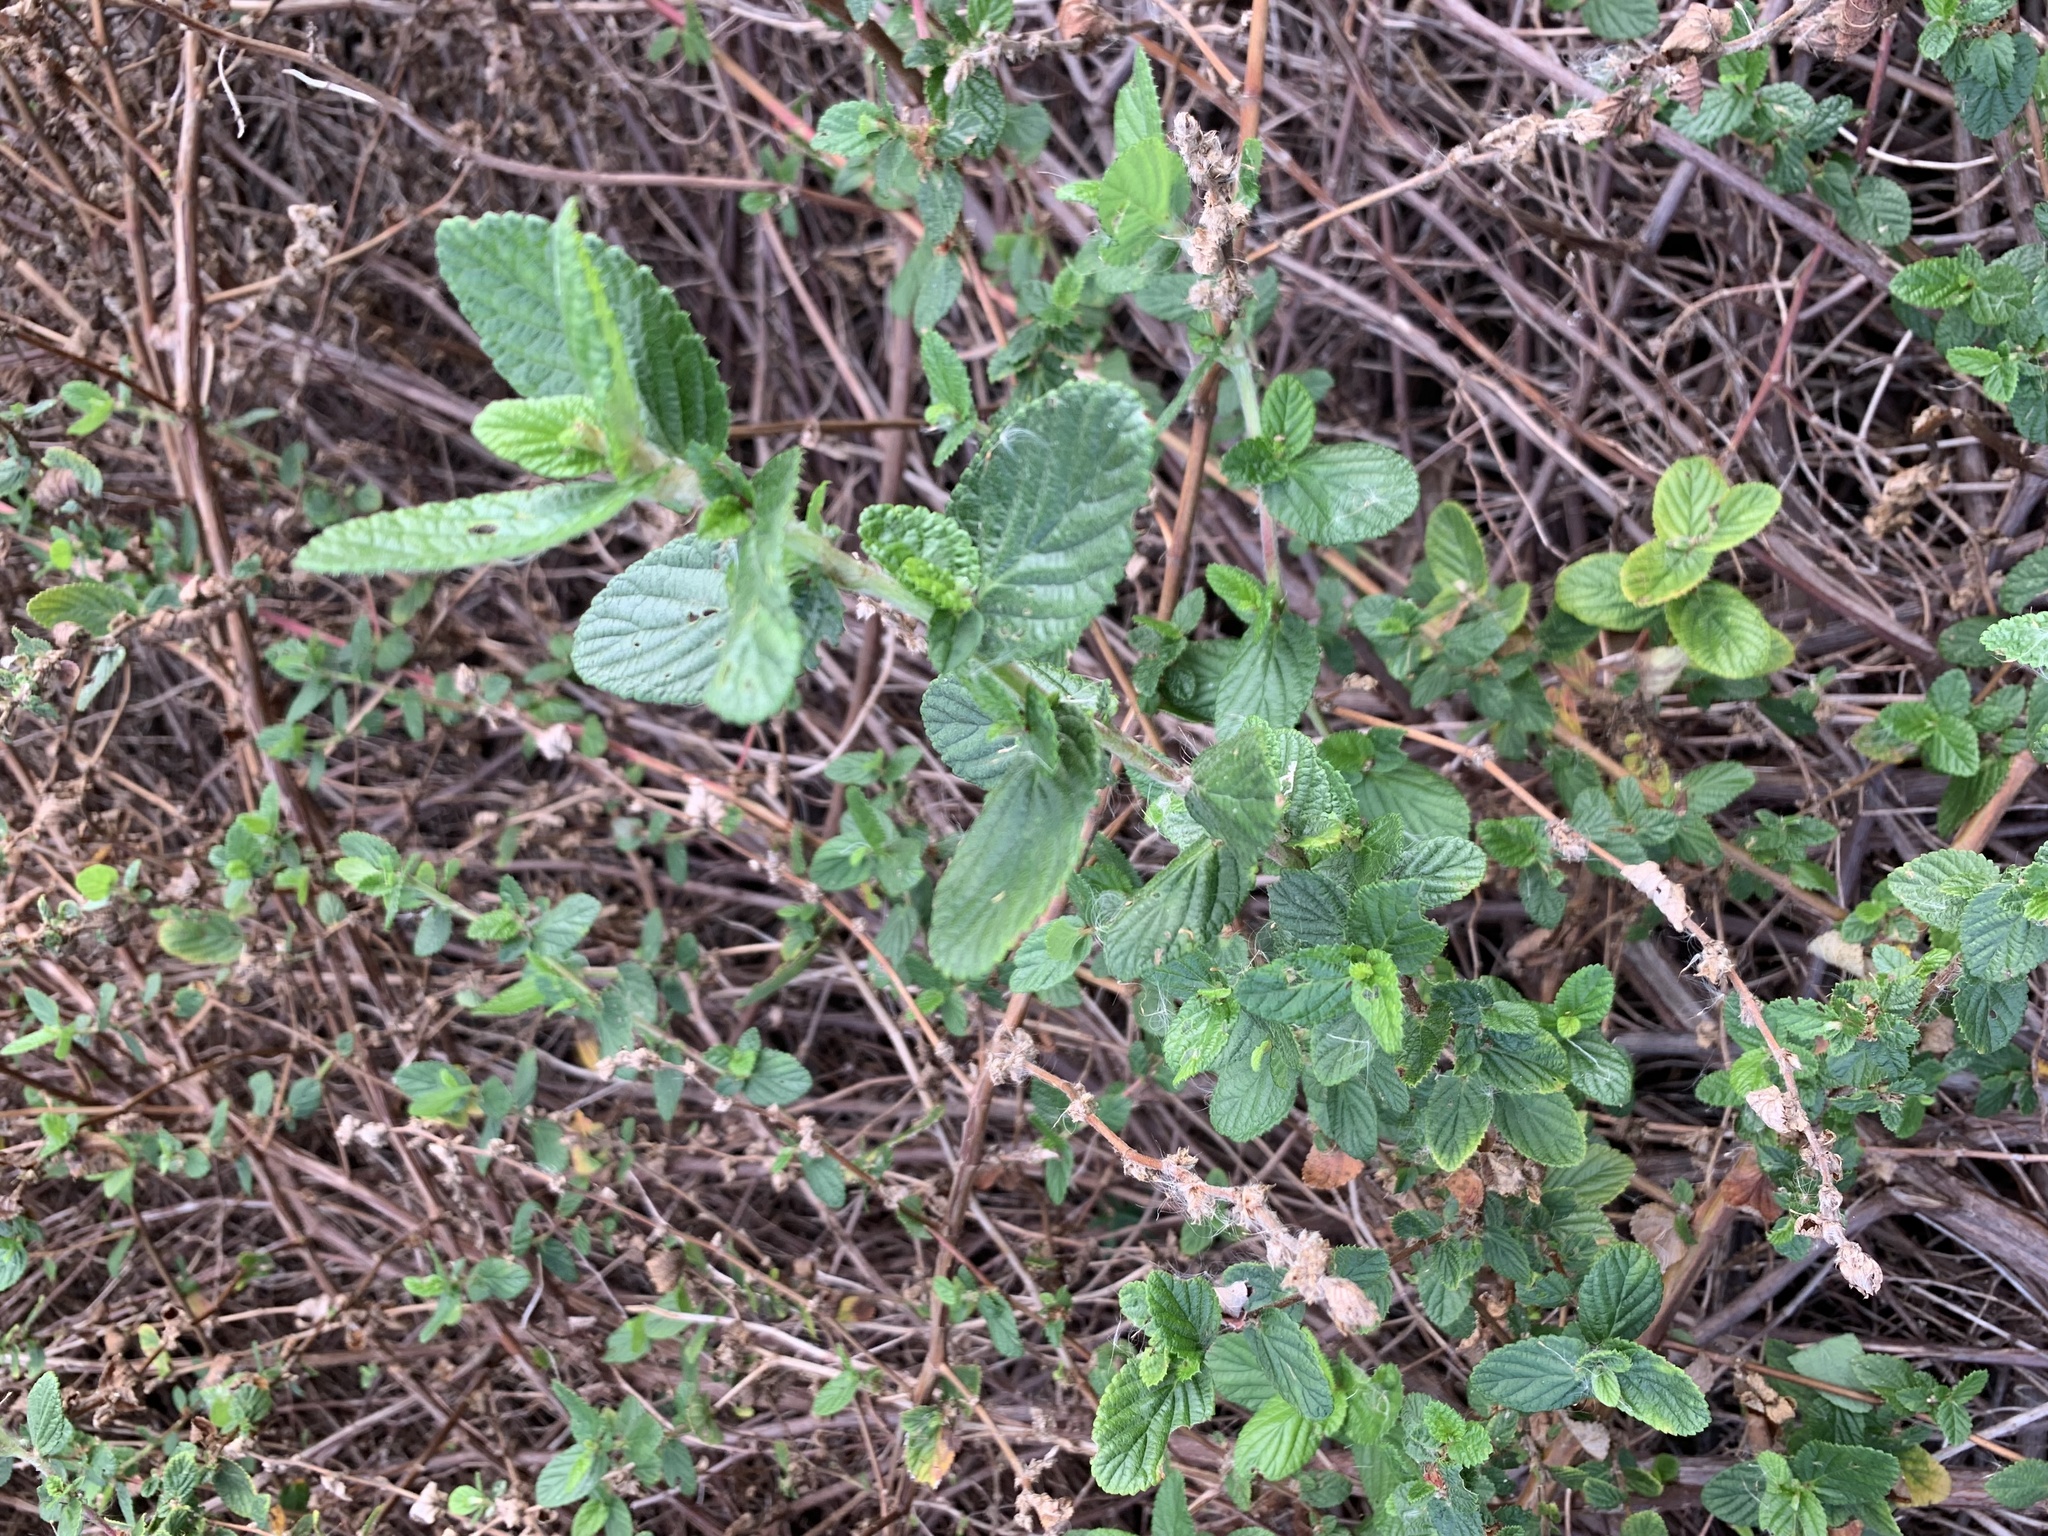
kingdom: Plantae
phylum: Tracheophyta
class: Magnoliopsida
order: Rosales
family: Rosaceae
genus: Cliffortia
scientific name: Cliffortia odorata
